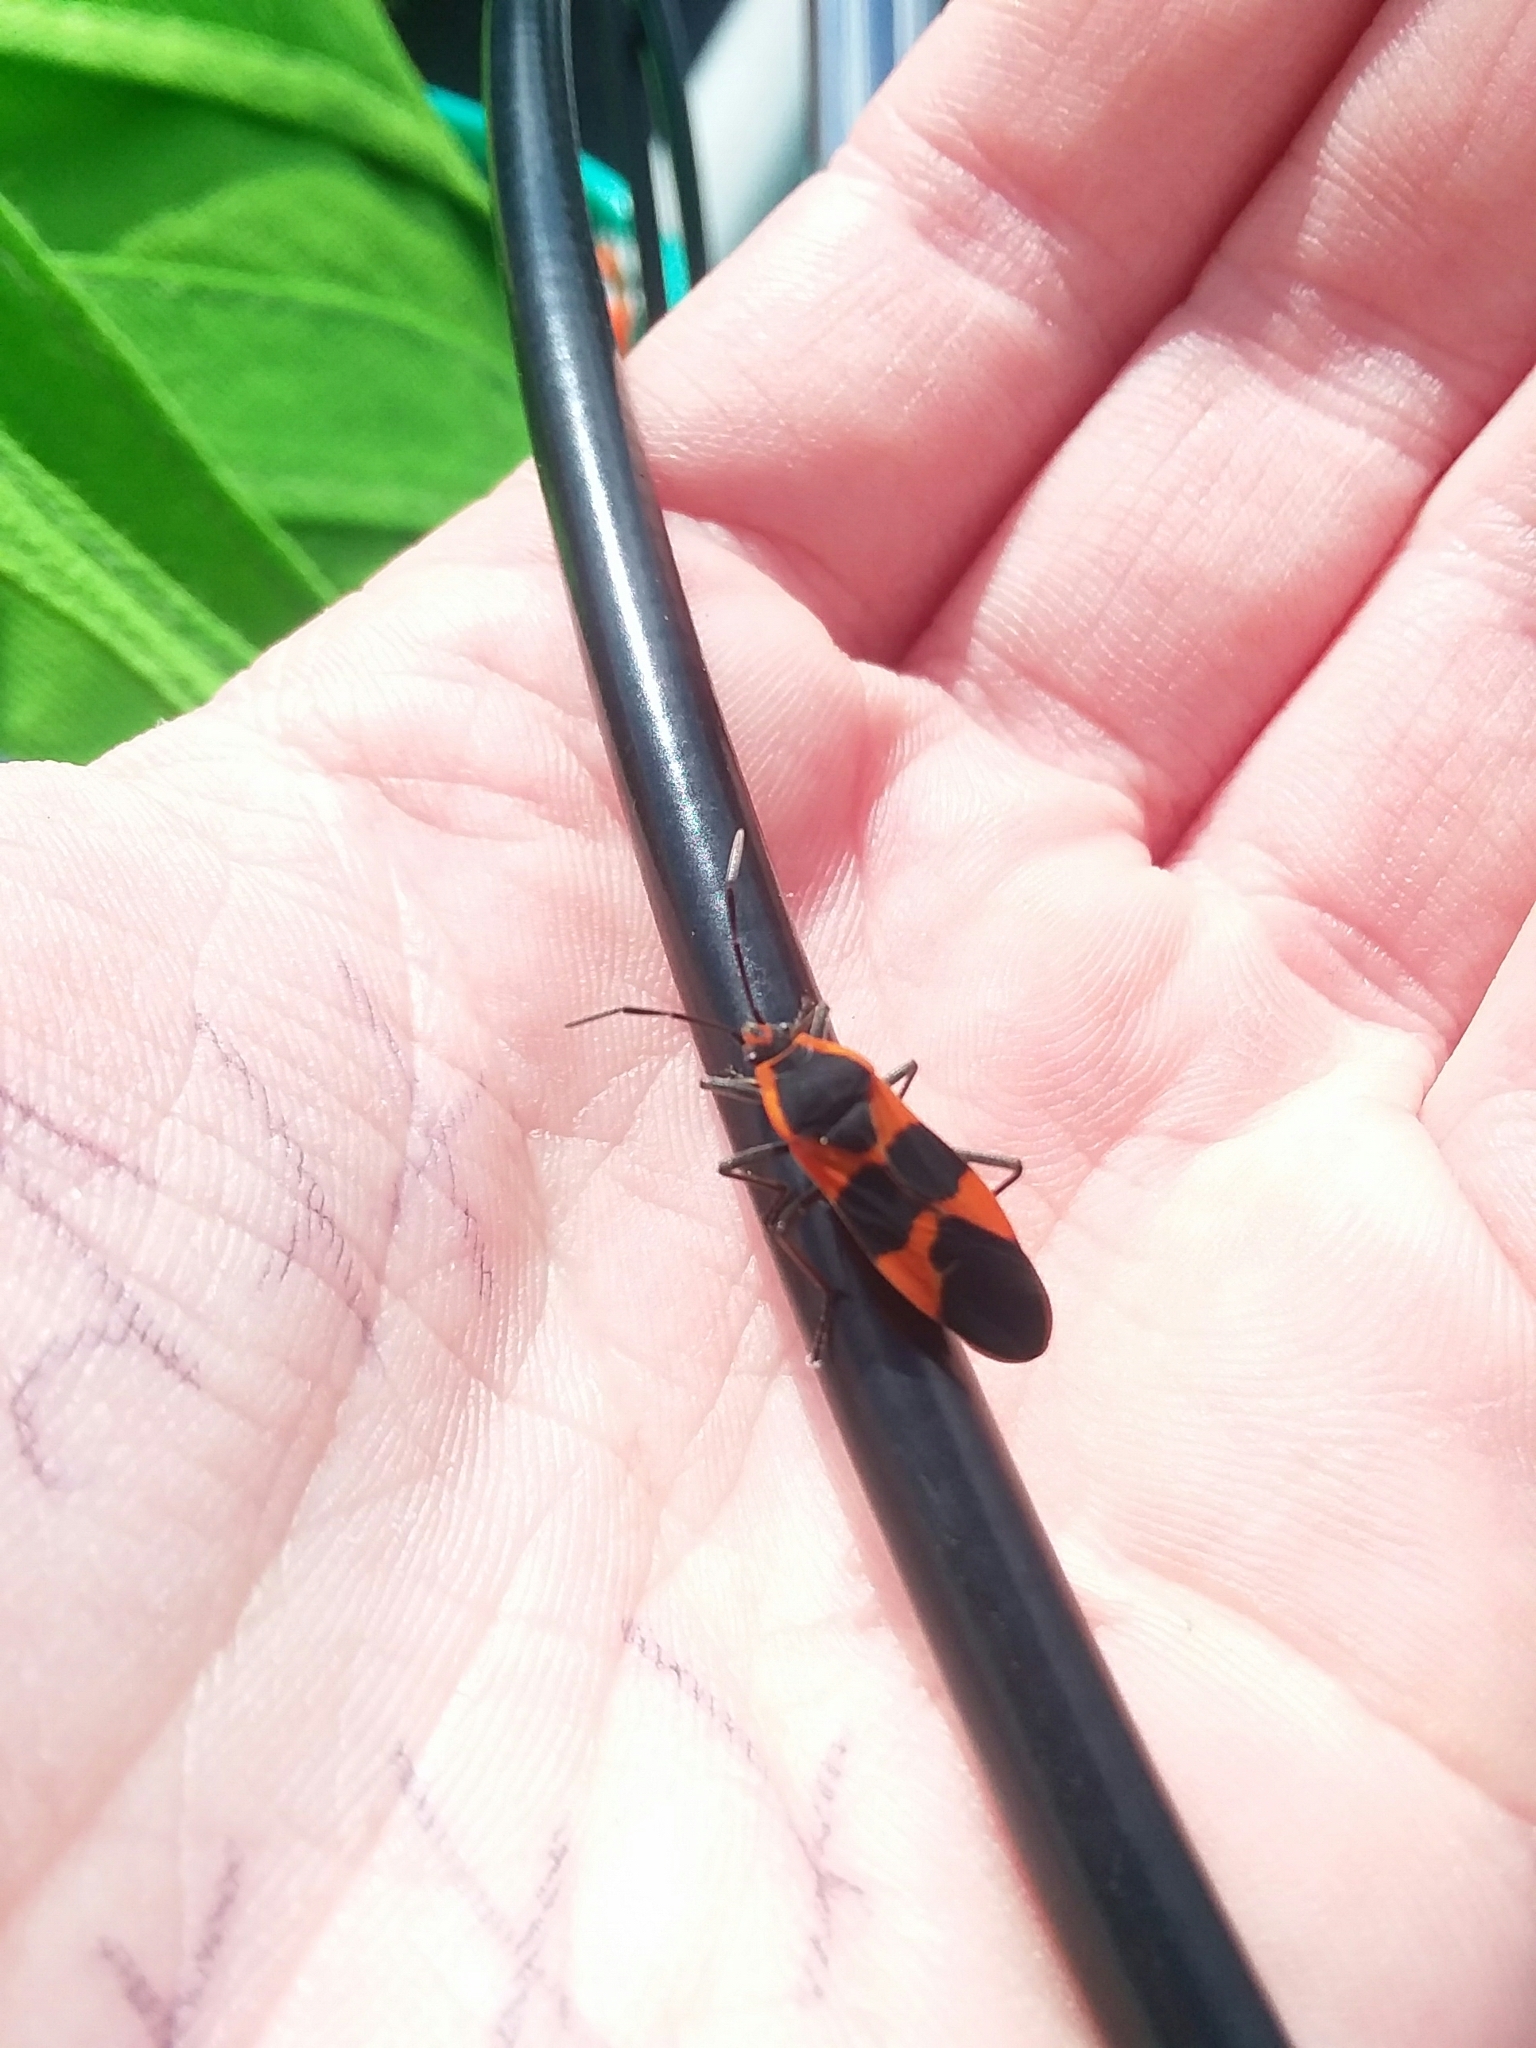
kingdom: Animalia
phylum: Arthropoda
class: Insecta
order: Hemiptera
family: Lygaeidae
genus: Oncopeltus
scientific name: Oncopeltus fasciatus
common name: Large milkweed bug
